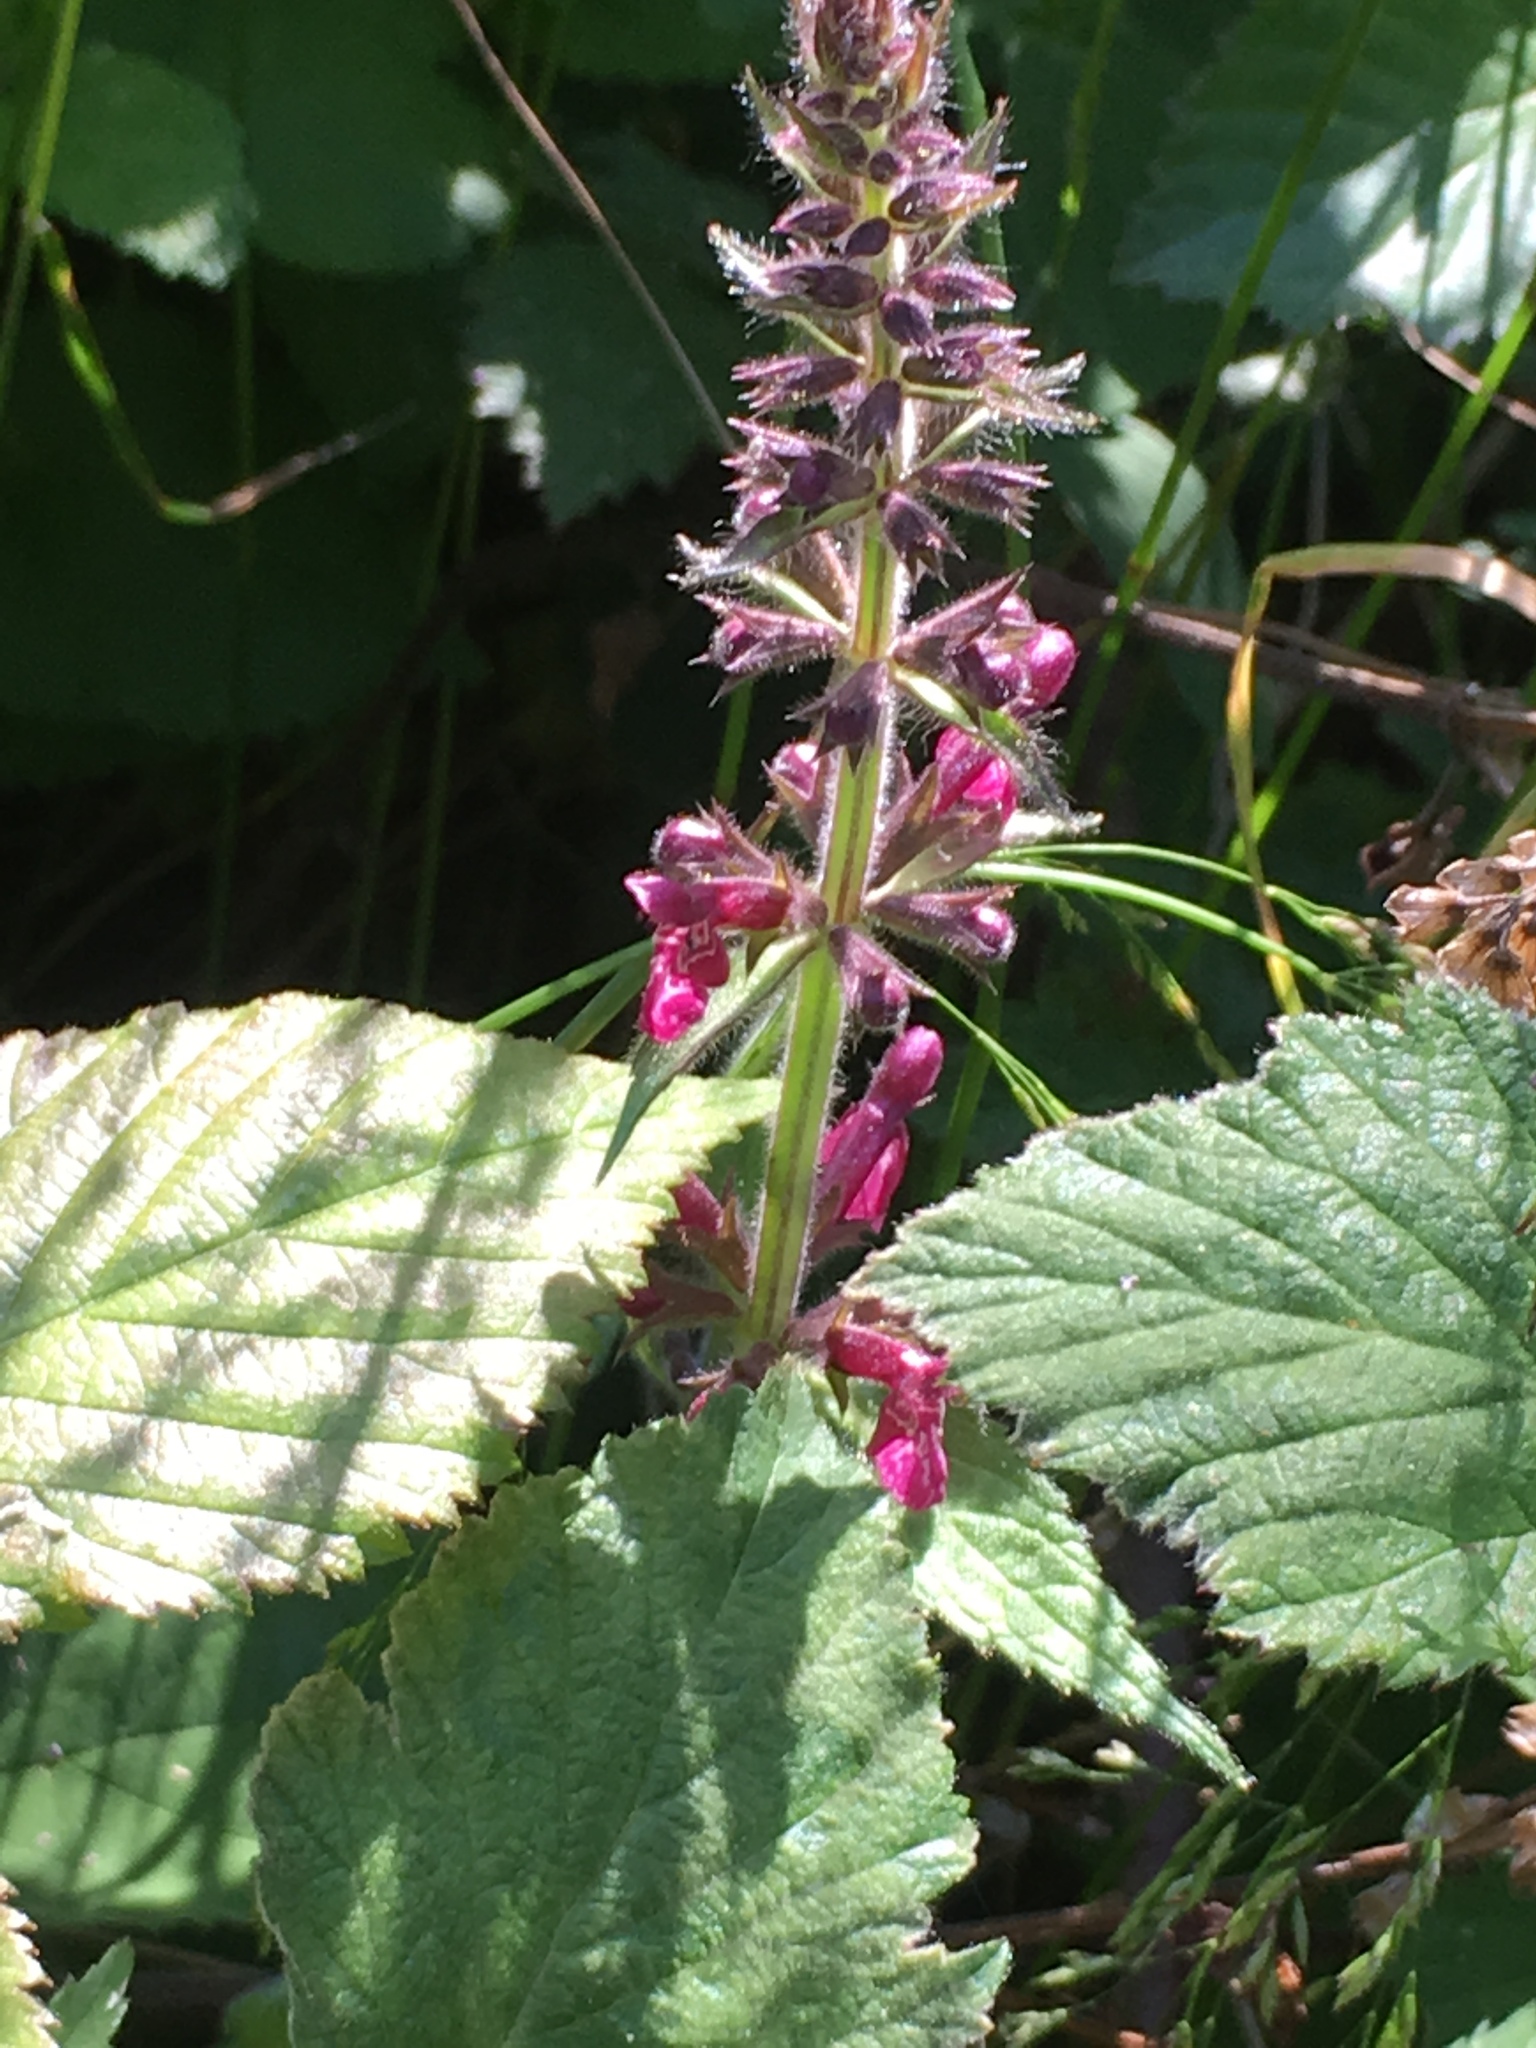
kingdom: Plantae
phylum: Tracheophyta
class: Magnoliopsida
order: Lamiales
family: Lamiaceae
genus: Stachys
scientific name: Stachys sylvatica
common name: Hedge woundwort
